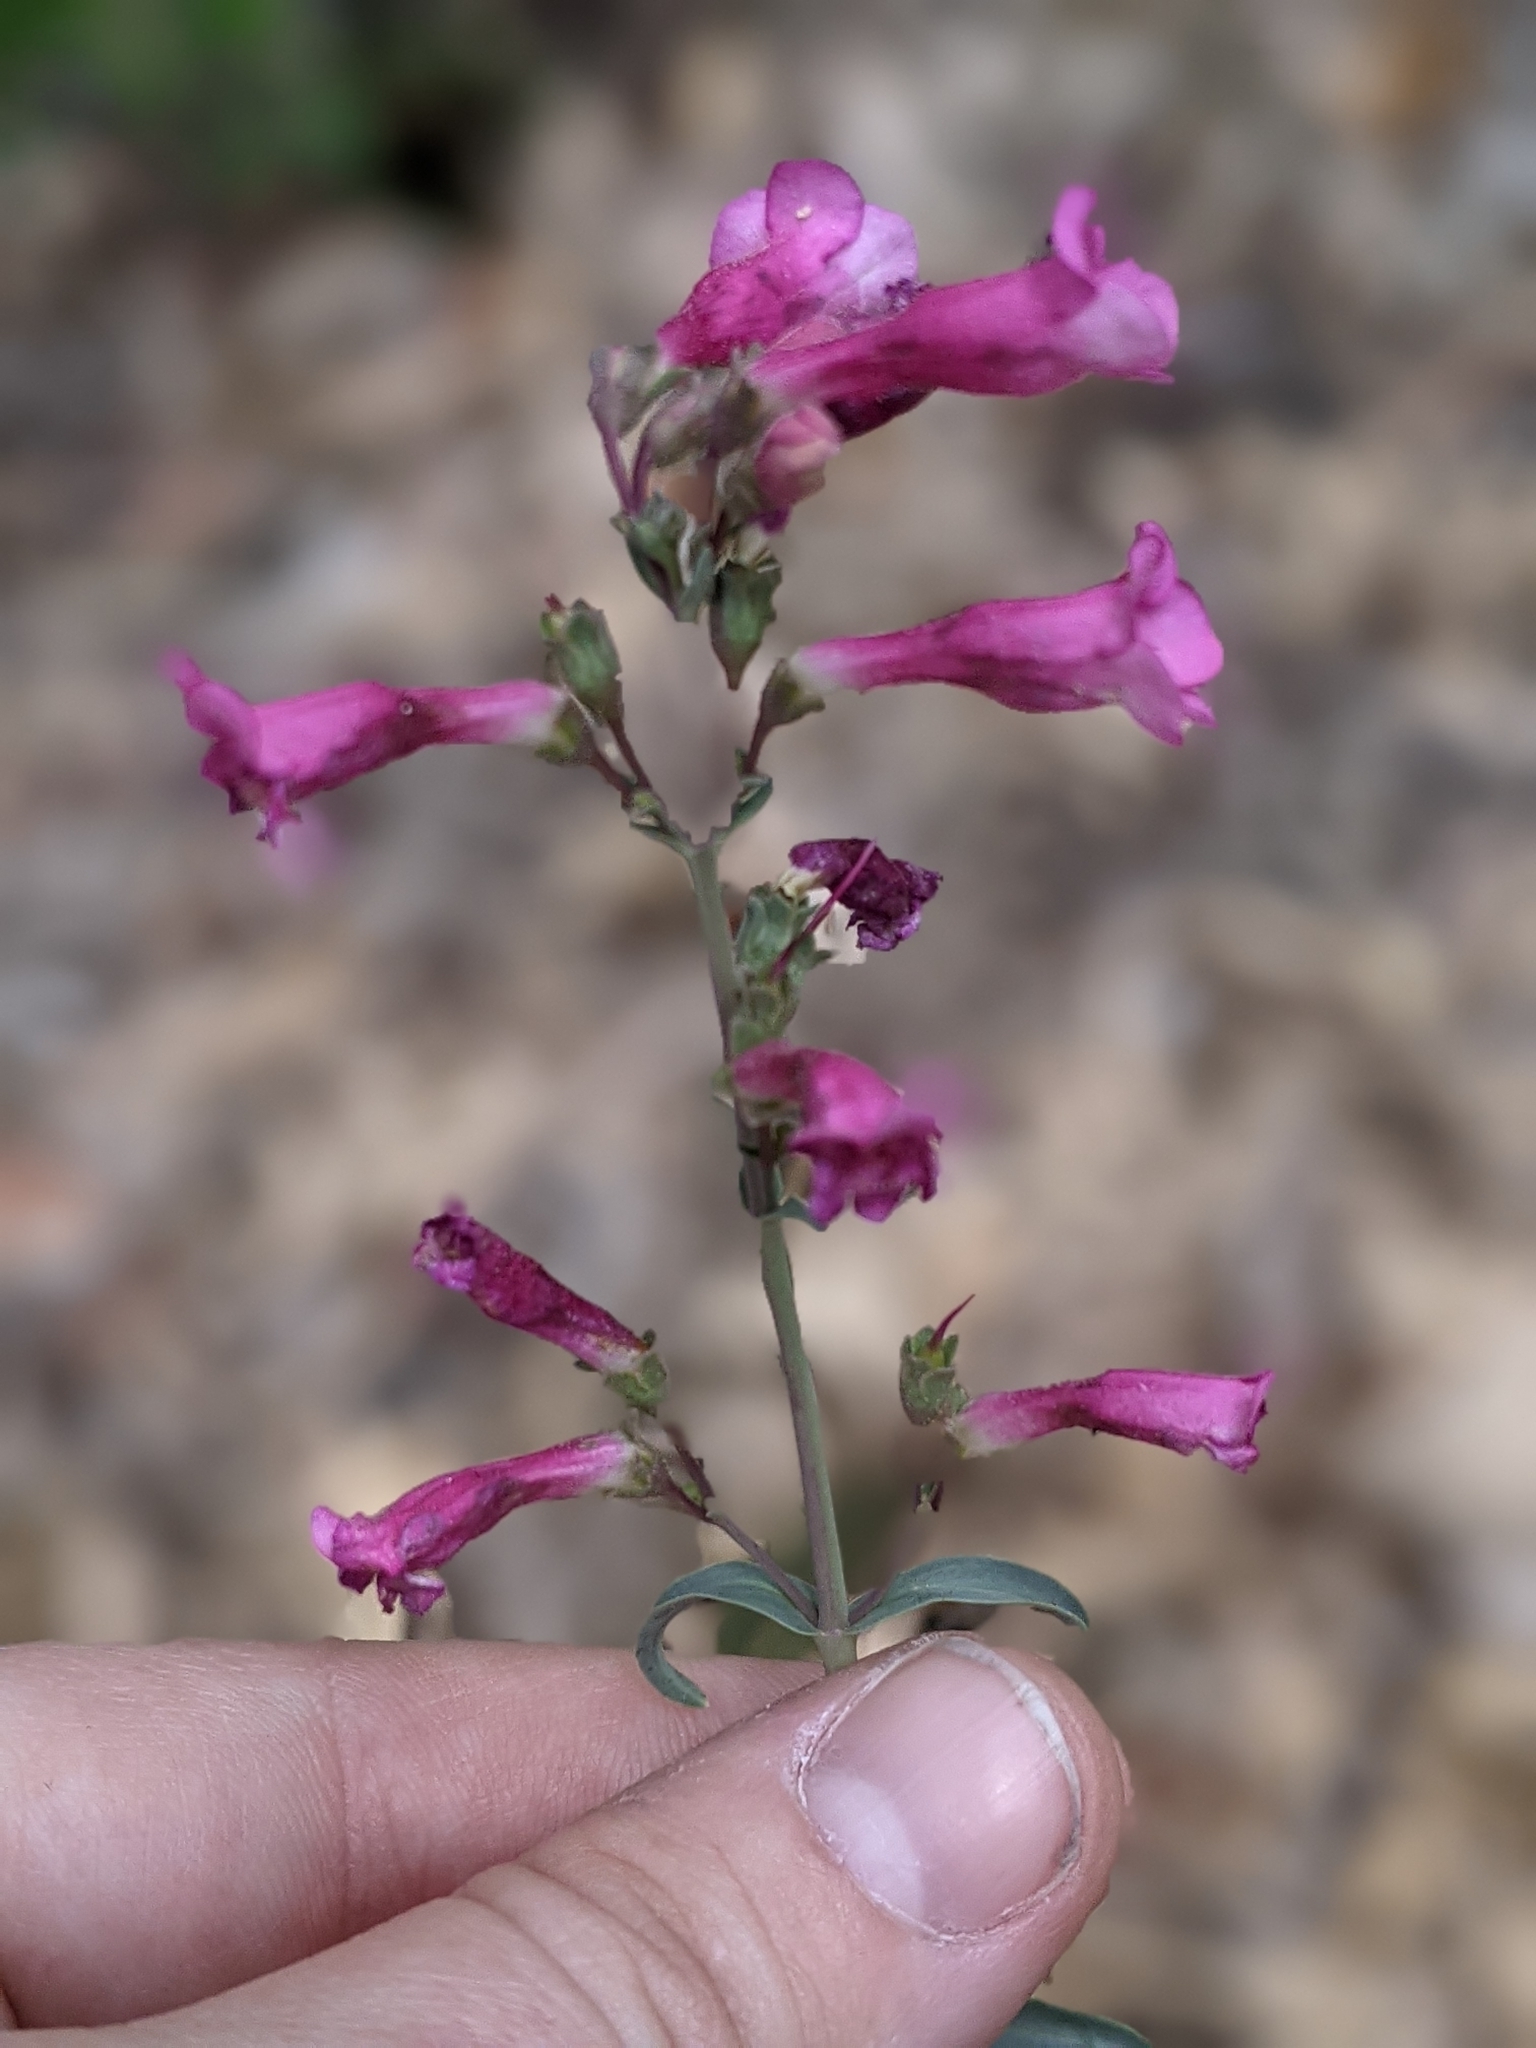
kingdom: Plantae
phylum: Tracheophyta
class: Magnoliopsida
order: Lamiales
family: Plantaginaceae
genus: Penstemon
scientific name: Penstemon parryi
